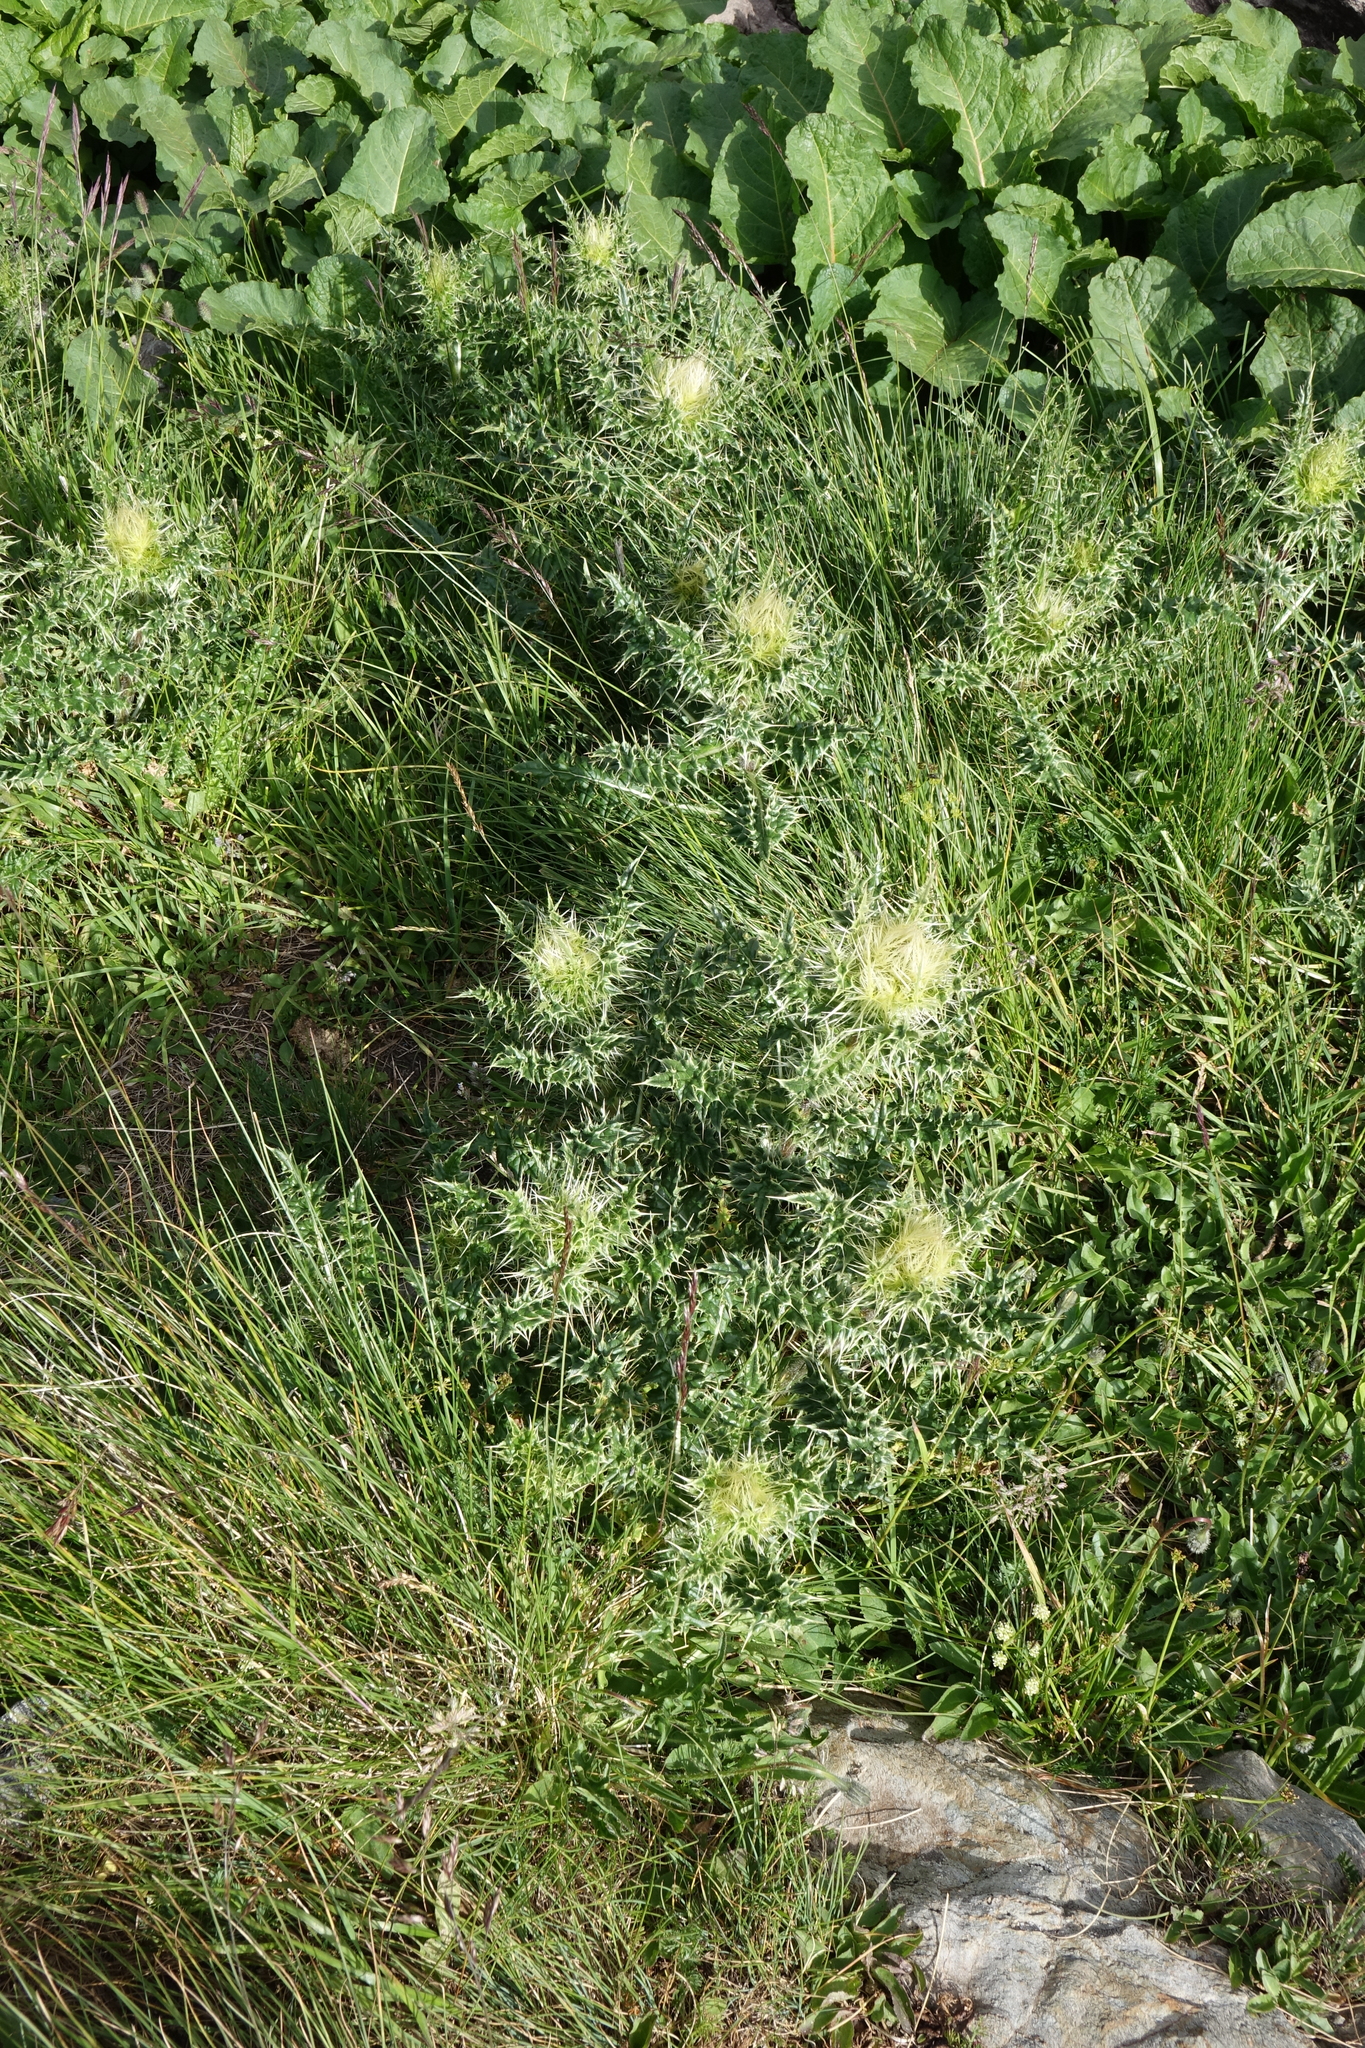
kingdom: Plantae
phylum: Tracheophyta
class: Magnoliopsida
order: Asterales
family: Asteraceae
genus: Cirsium
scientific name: Cirsium obvallatum
